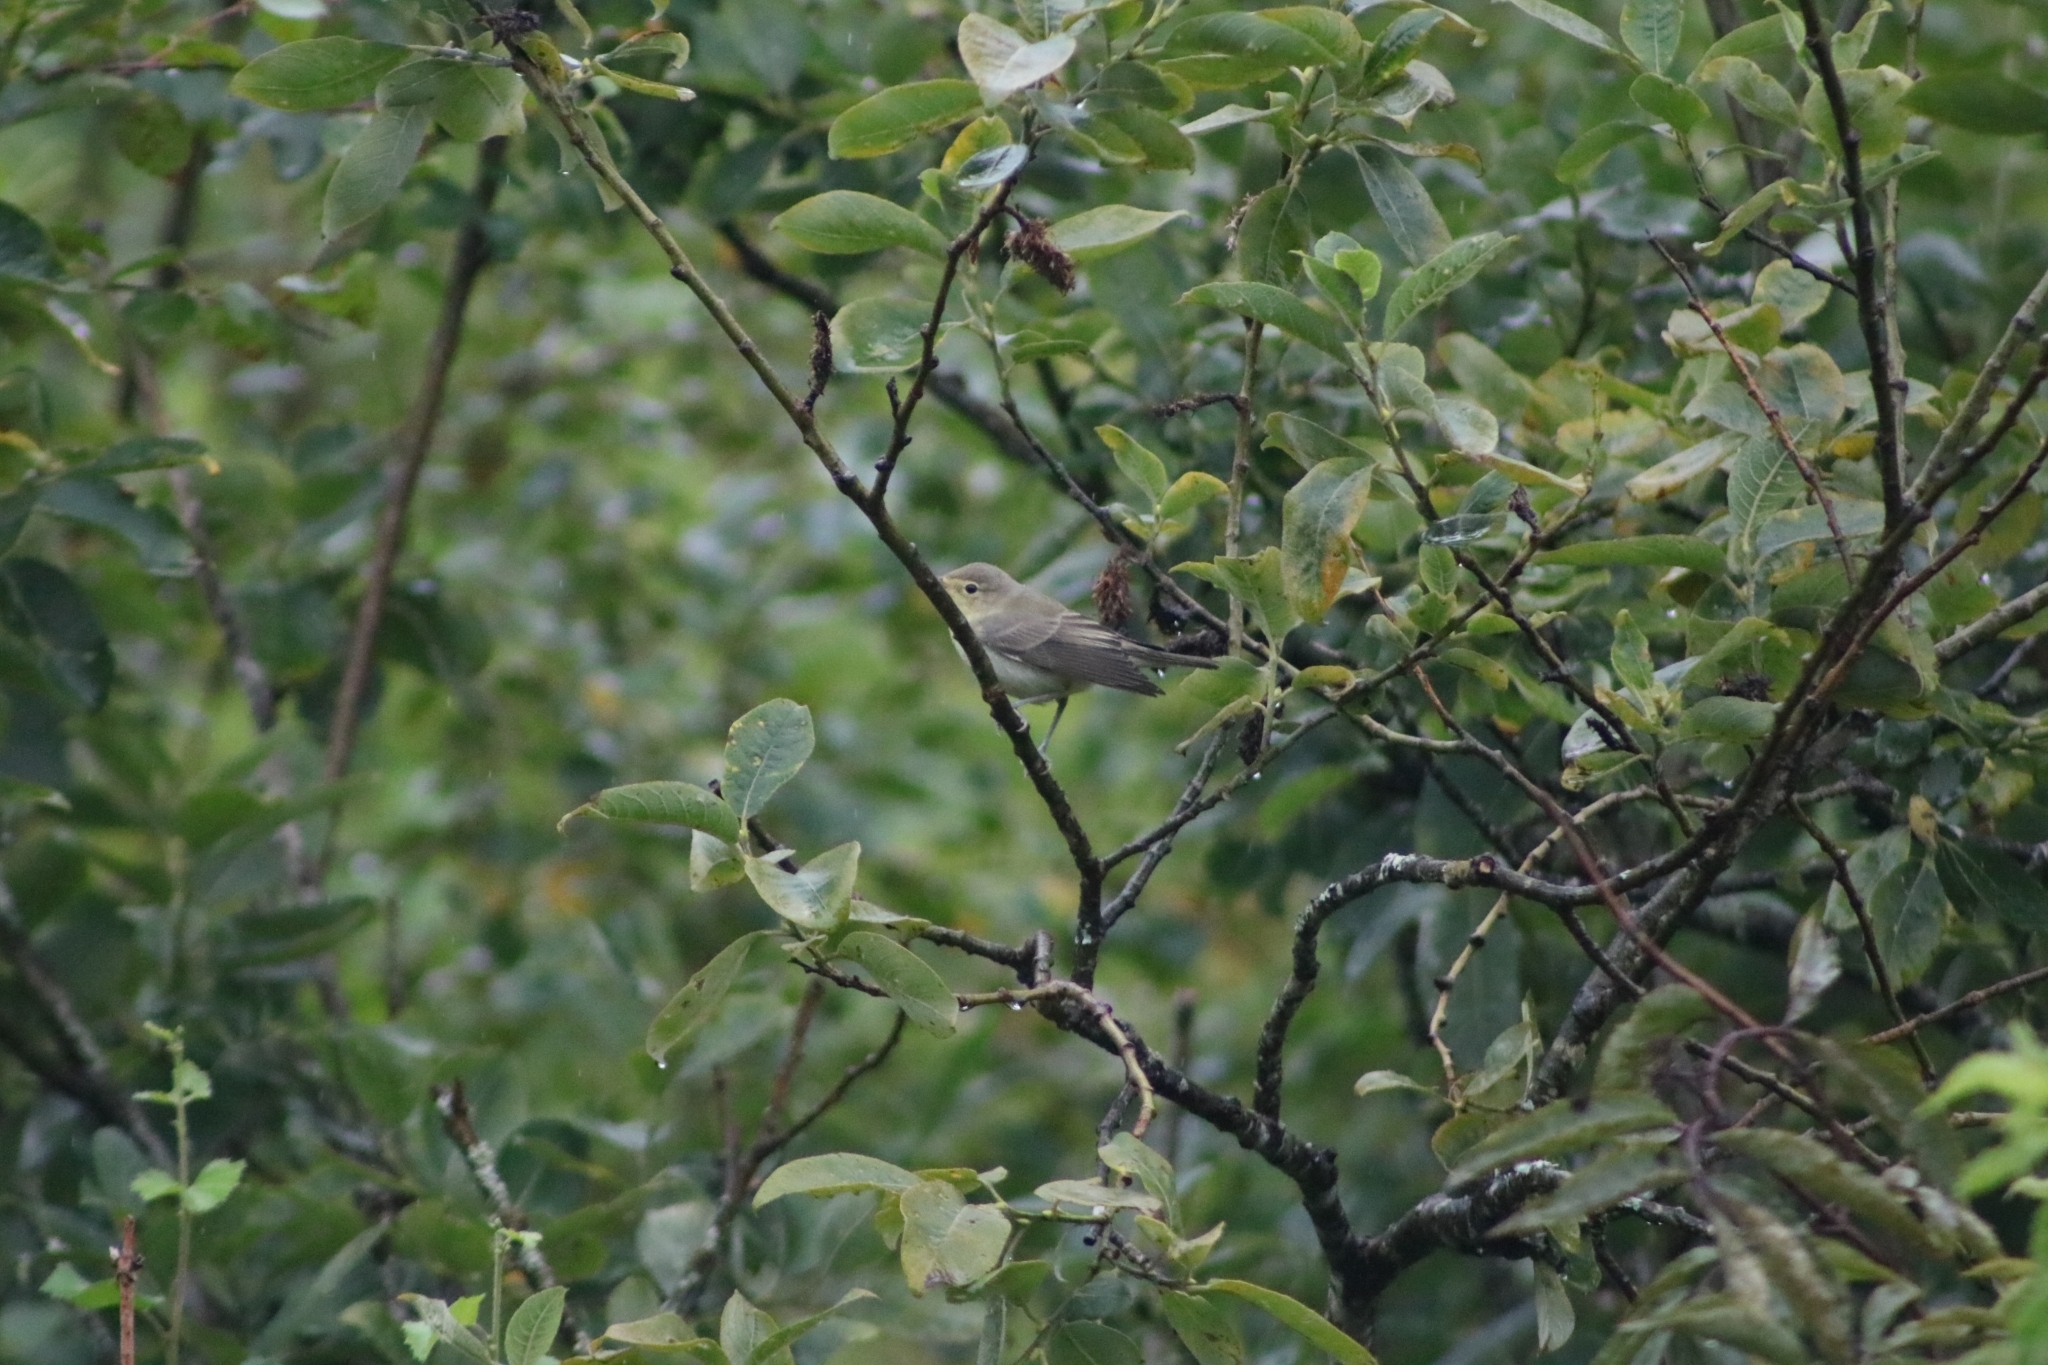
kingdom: Animalia
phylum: Chordata
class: Aves
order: Passeriformes
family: Acrocephalidae
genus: Hippolais
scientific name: Hippolais icterina
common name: Icterine warbler
